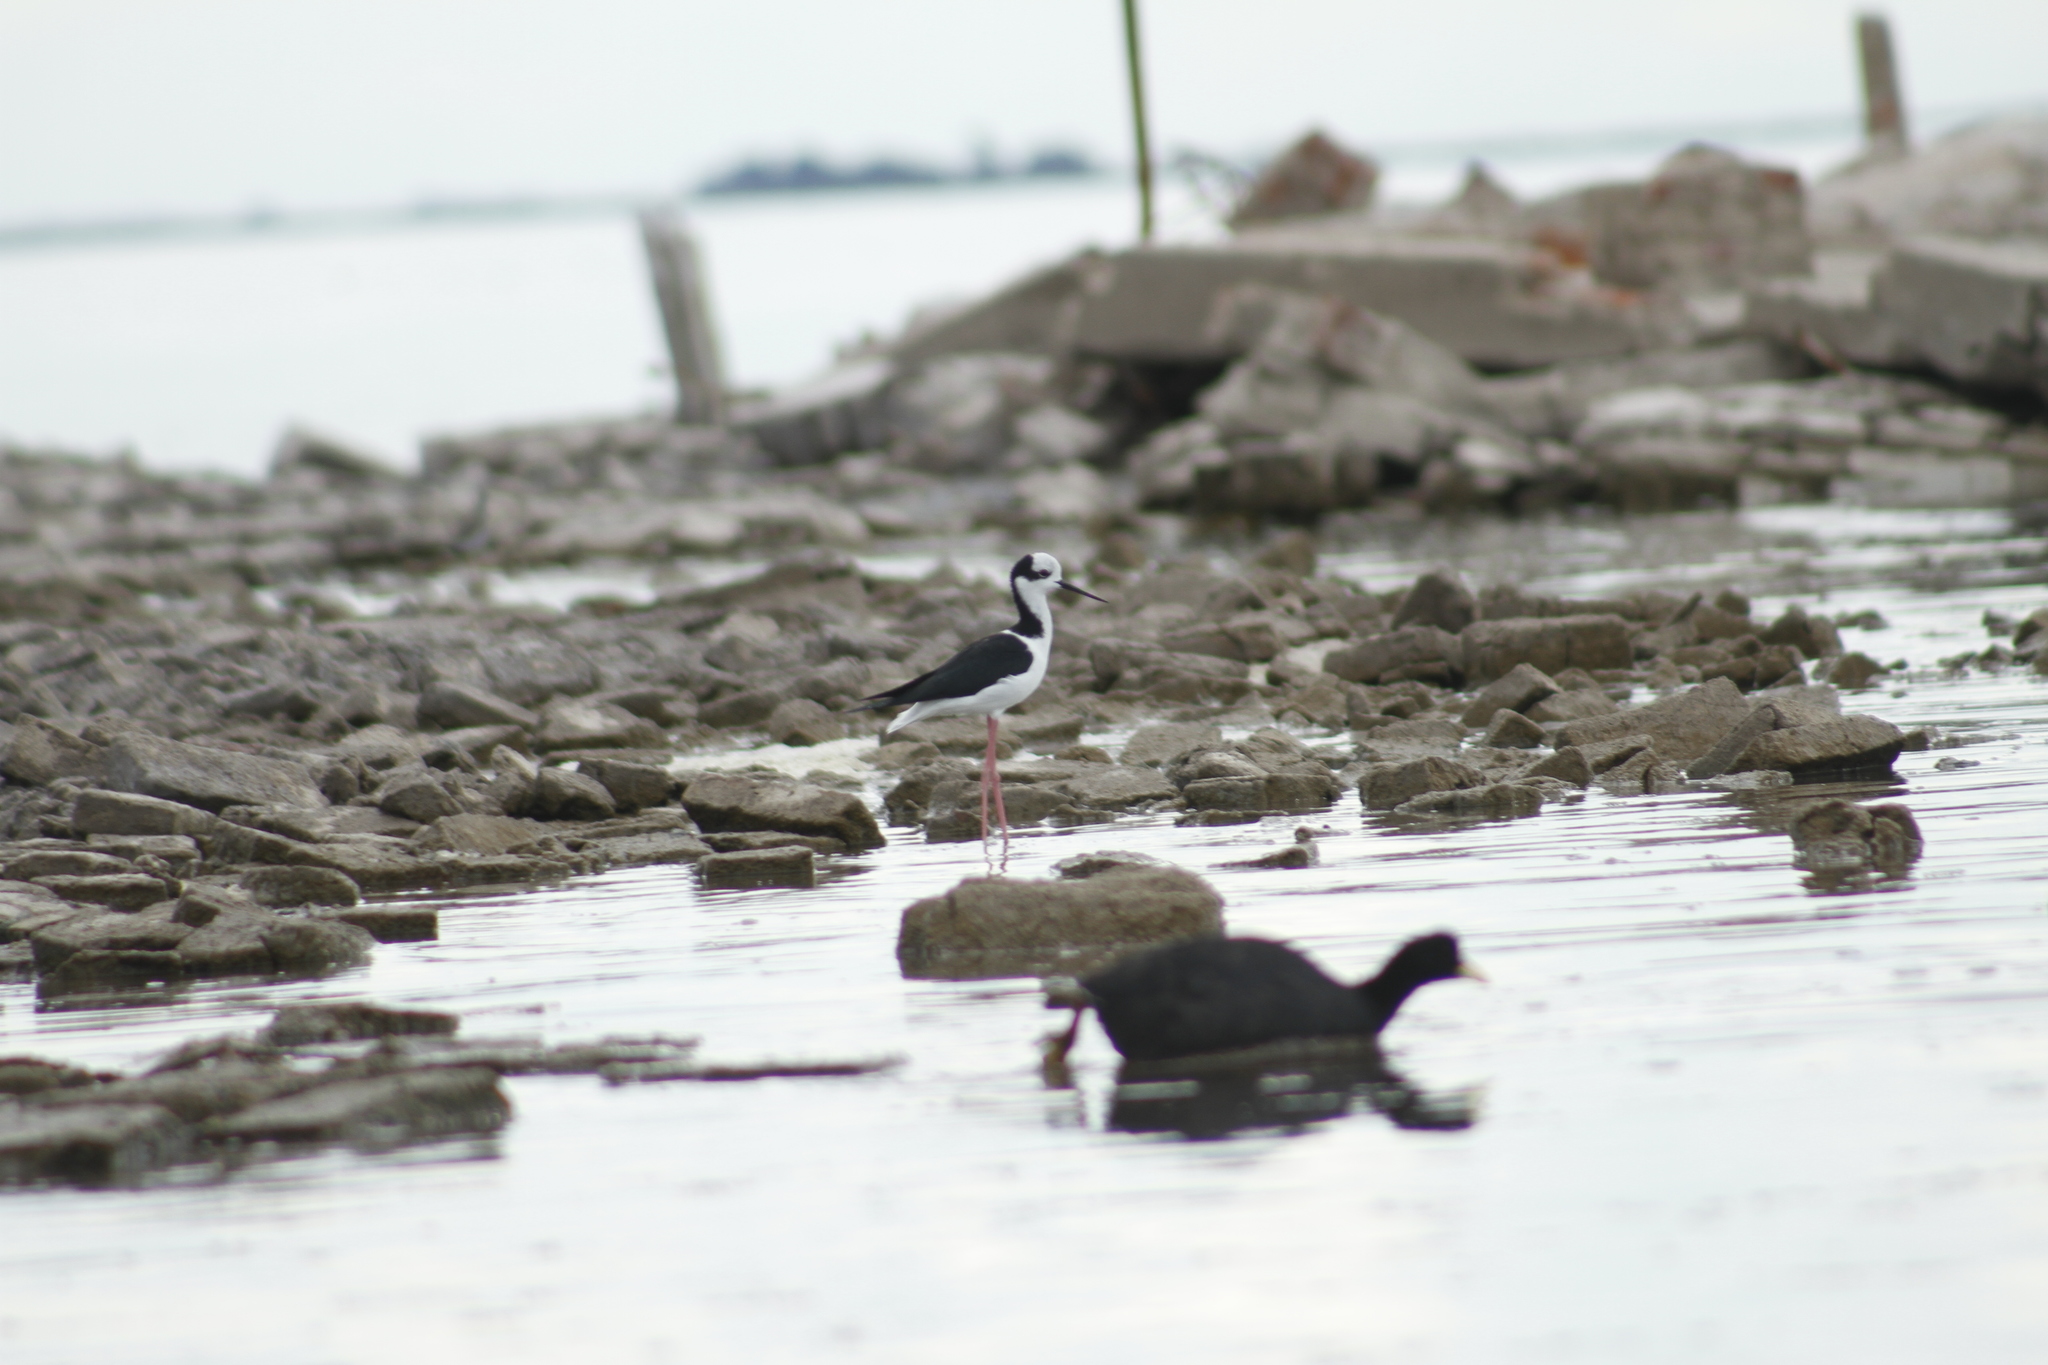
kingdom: Animalia
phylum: Chordata
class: Aves
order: Charadriiformes
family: Recurvirostridae
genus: Himantopus
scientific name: Himantopus mexicanus
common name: Black-necked stilt
